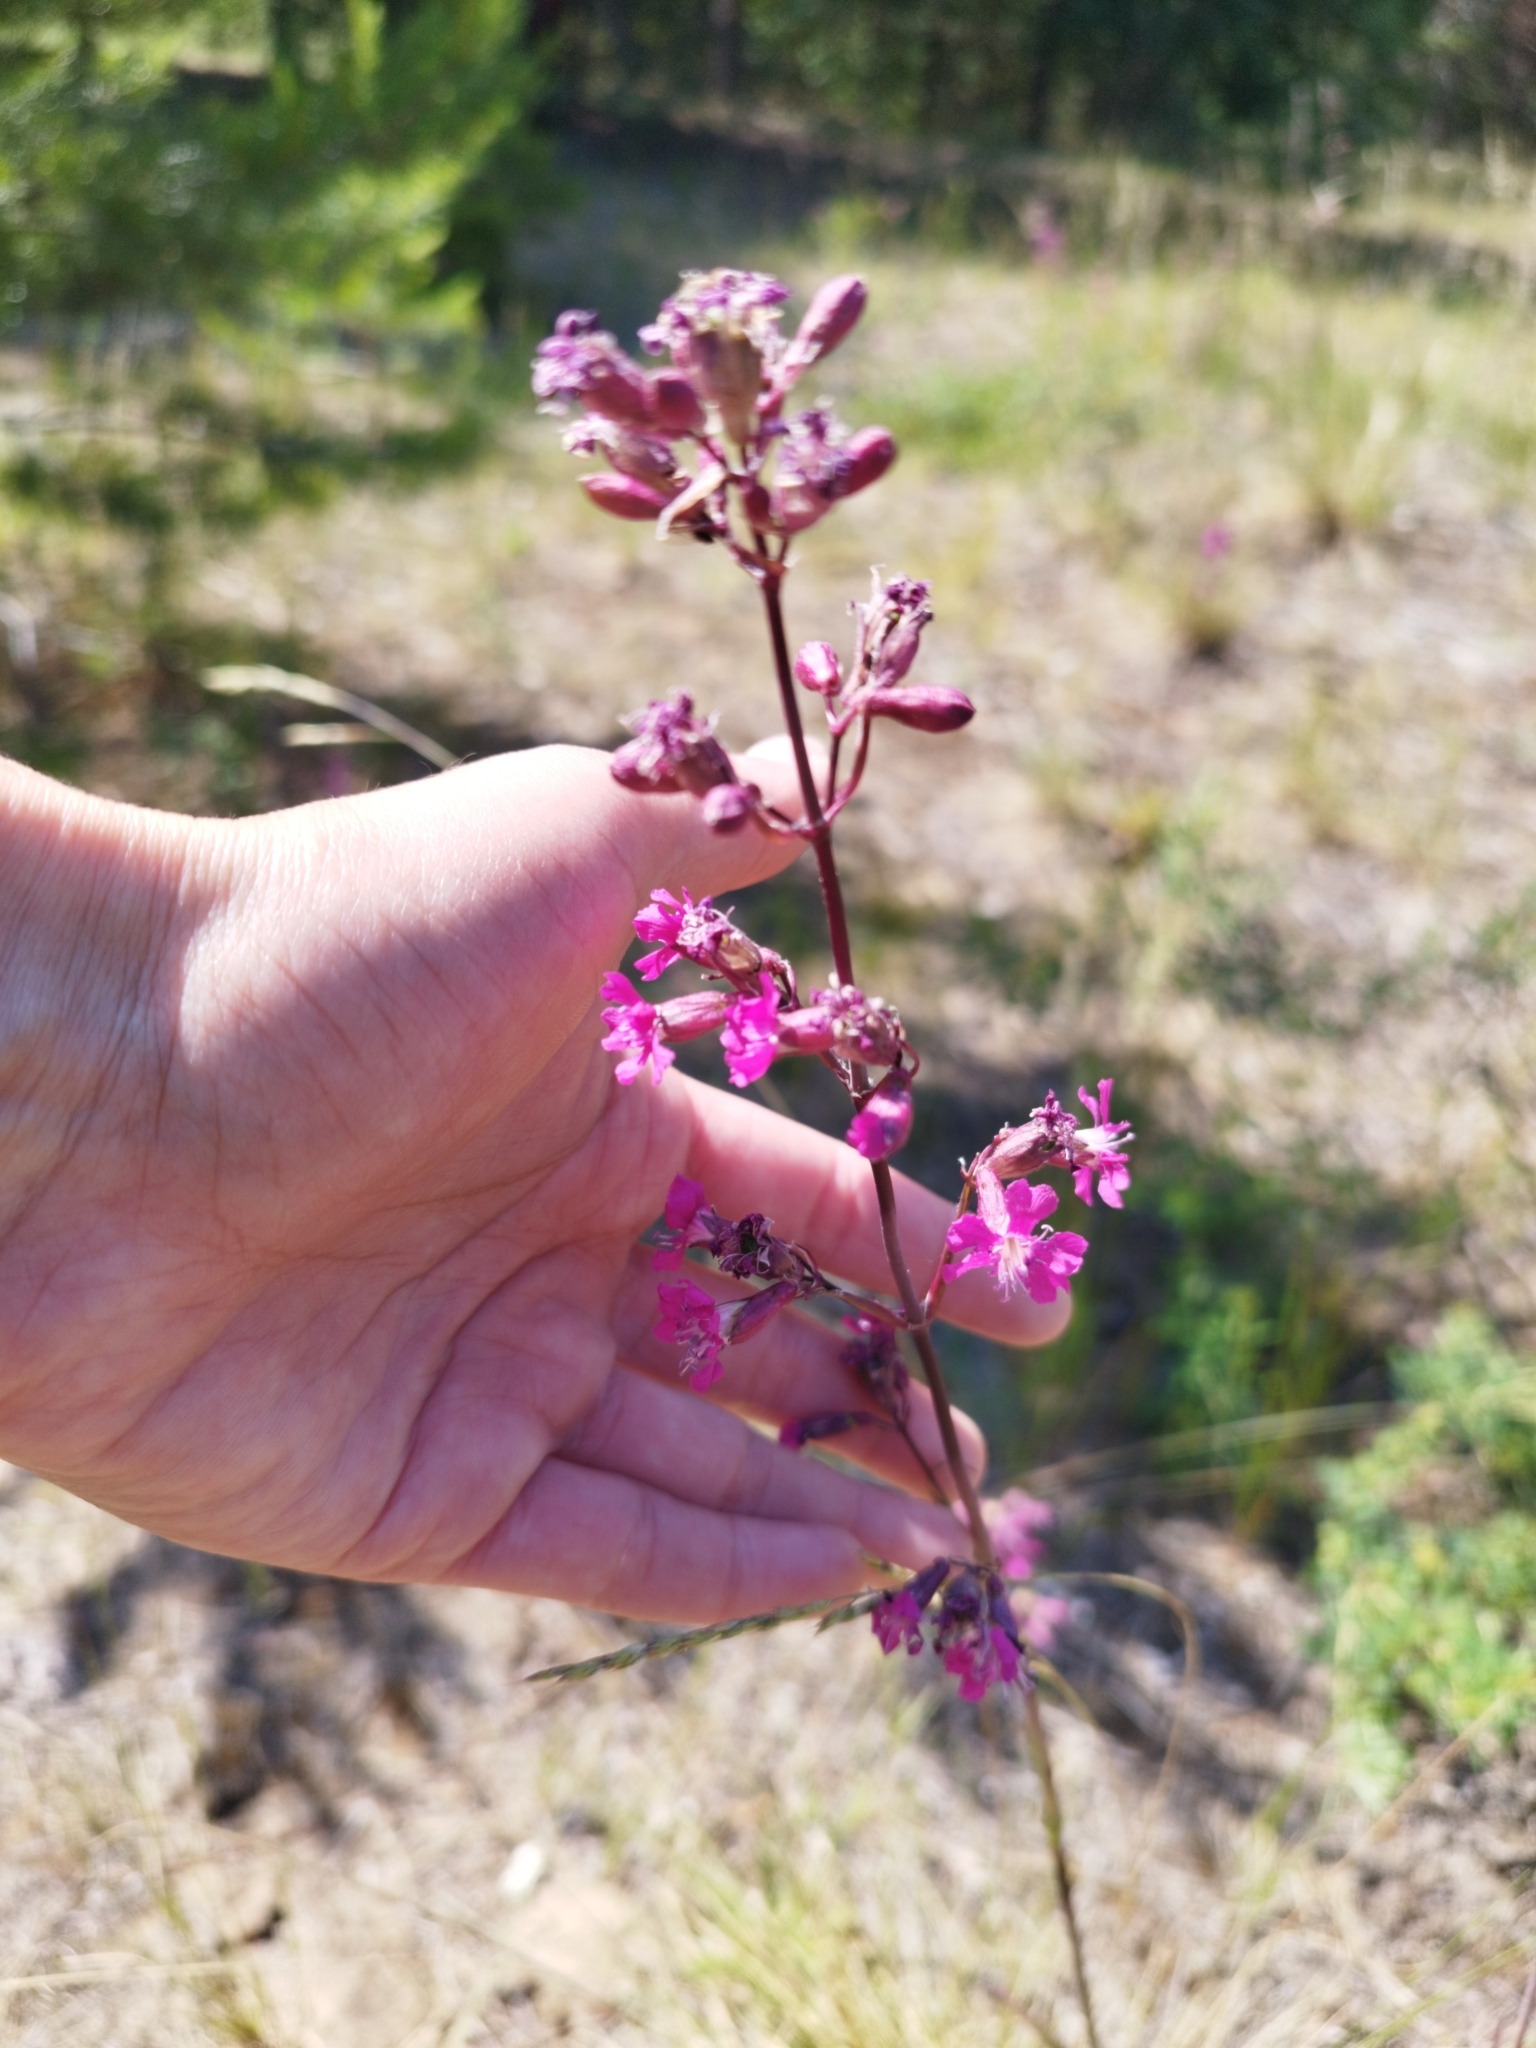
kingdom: Plantae
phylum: Tracheophyta
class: Magnoliopsida
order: Caryophyllales
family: Caryophyllaceae
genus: Viscaria
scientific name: Viscaria vulgaris
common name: Clammy campion
